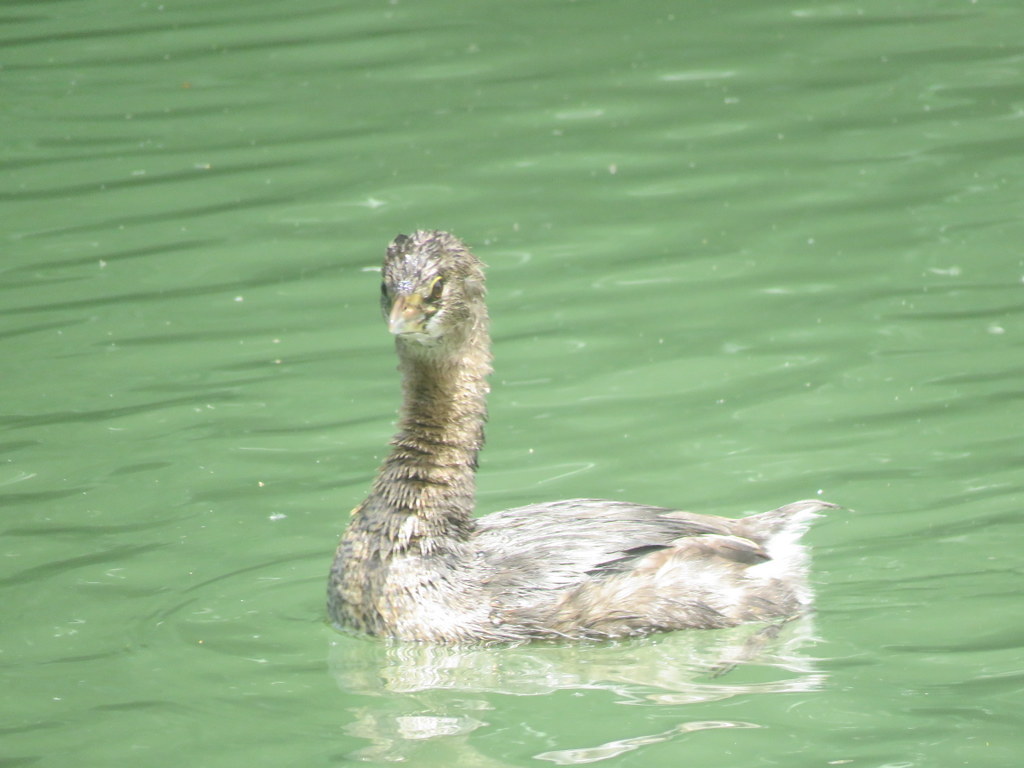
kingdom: Animalia
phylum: Chordata
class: Aves
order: Podicipediformes
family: Podicipedidae
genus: Podilymbus
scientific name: Podilymbus podiceps
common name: Pied-billed grebe
